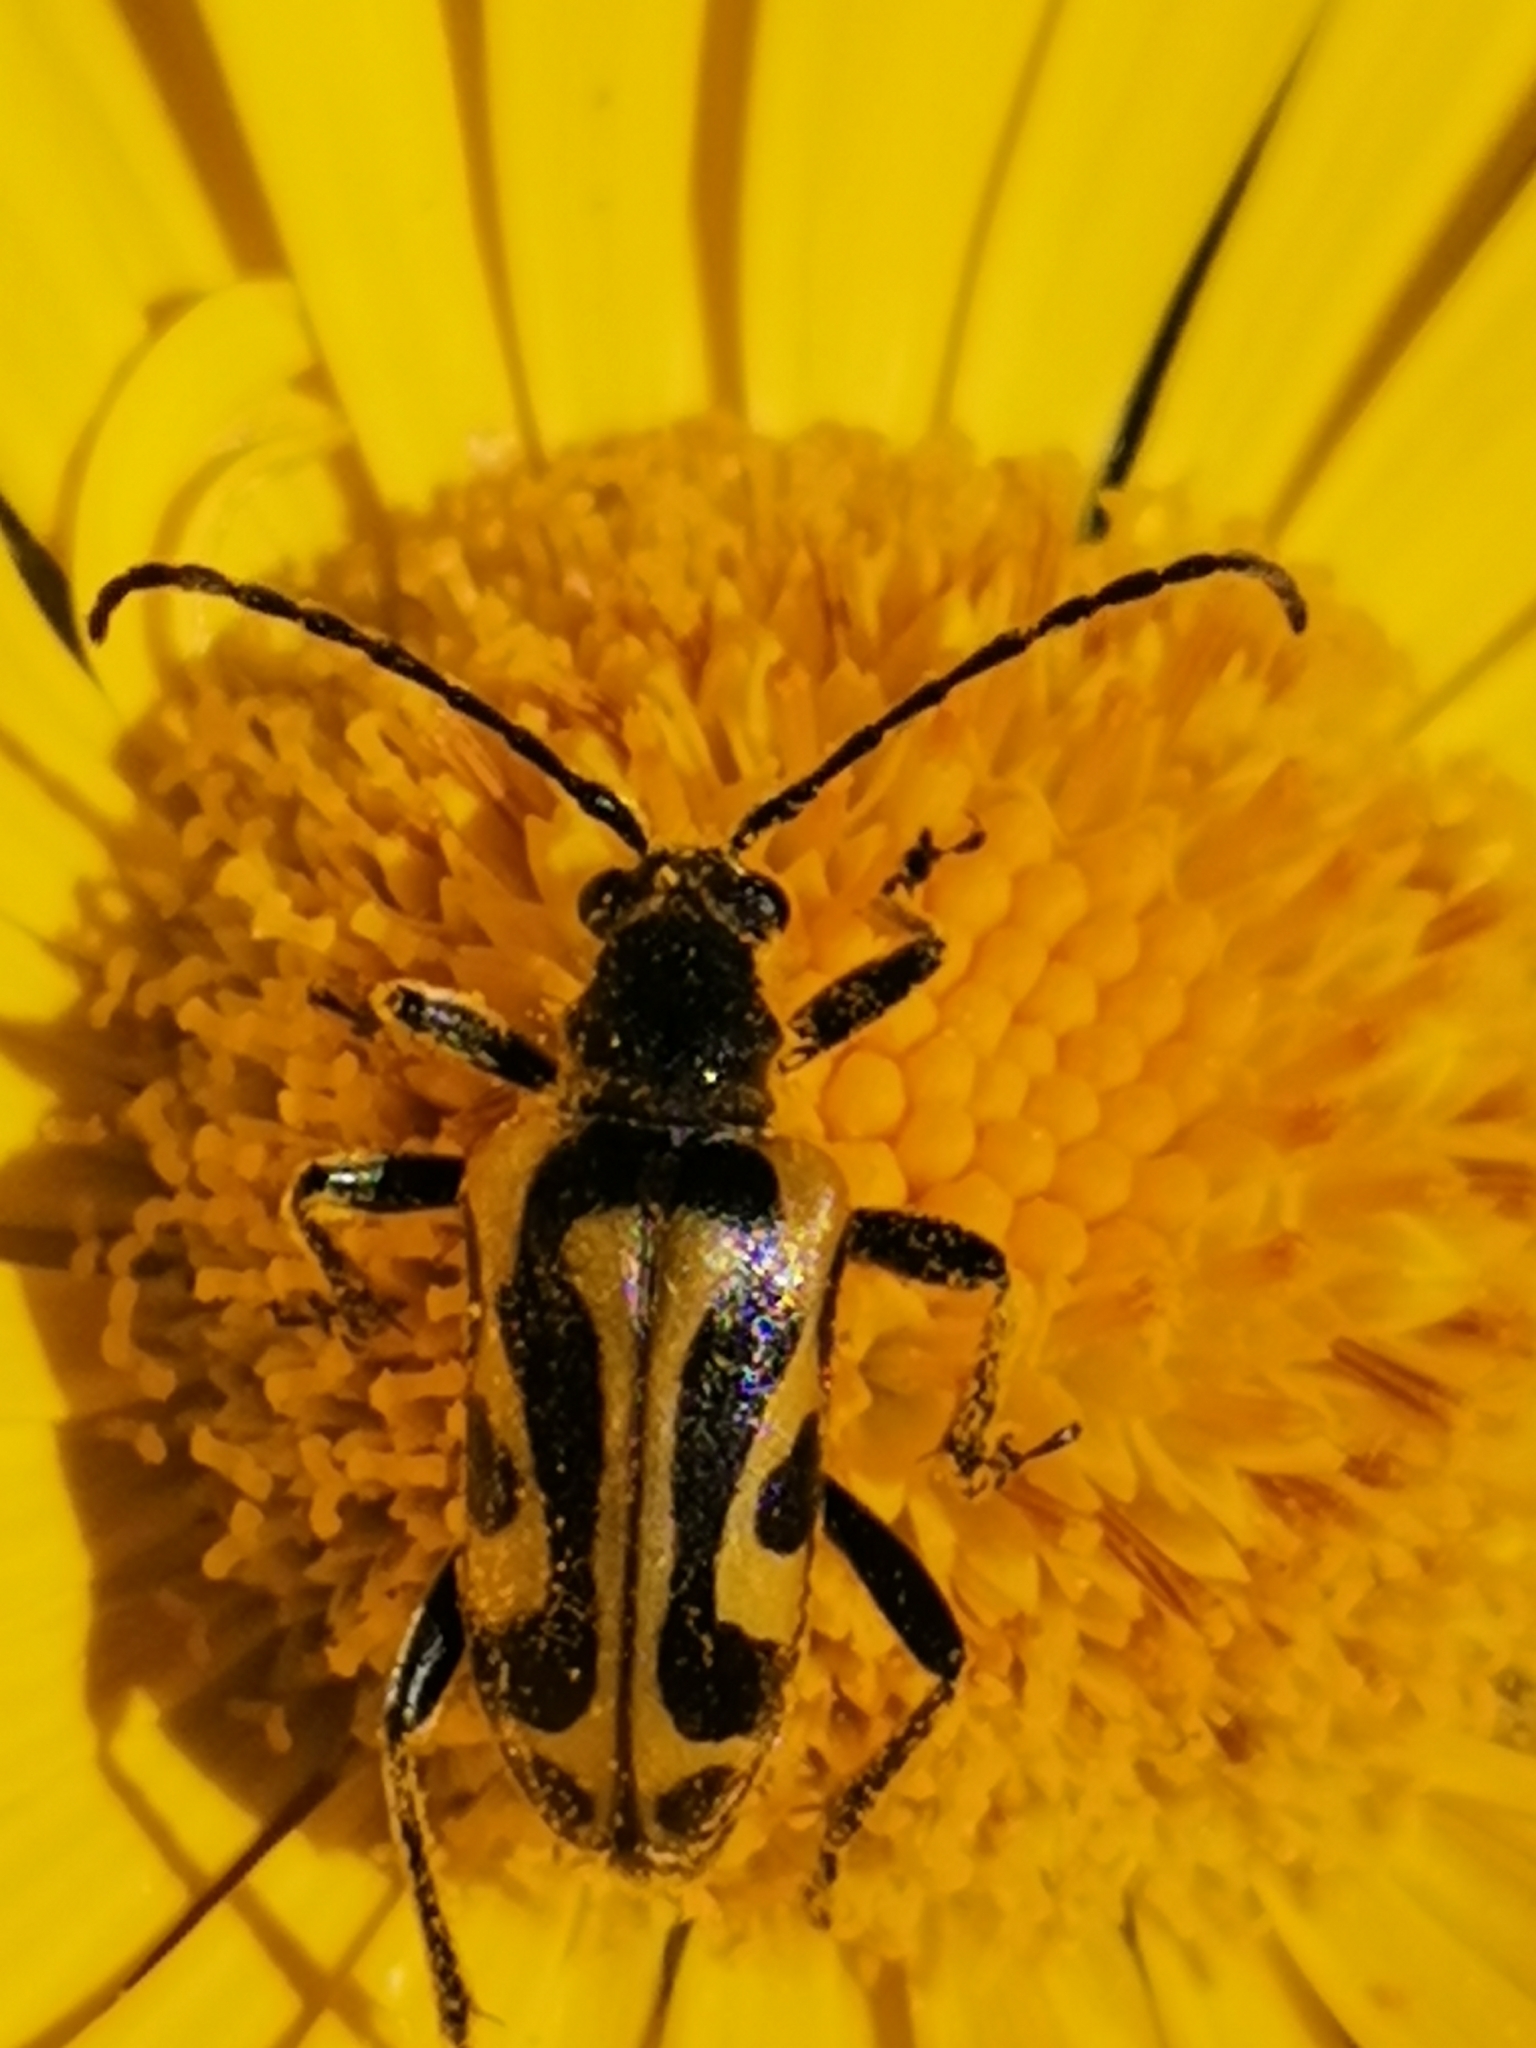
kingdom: Animalia
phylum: Arthropoda
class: Insecta
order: Coleoptera
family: Cerambycidae
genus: Brachyta
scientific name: Brachyta interrogationis
